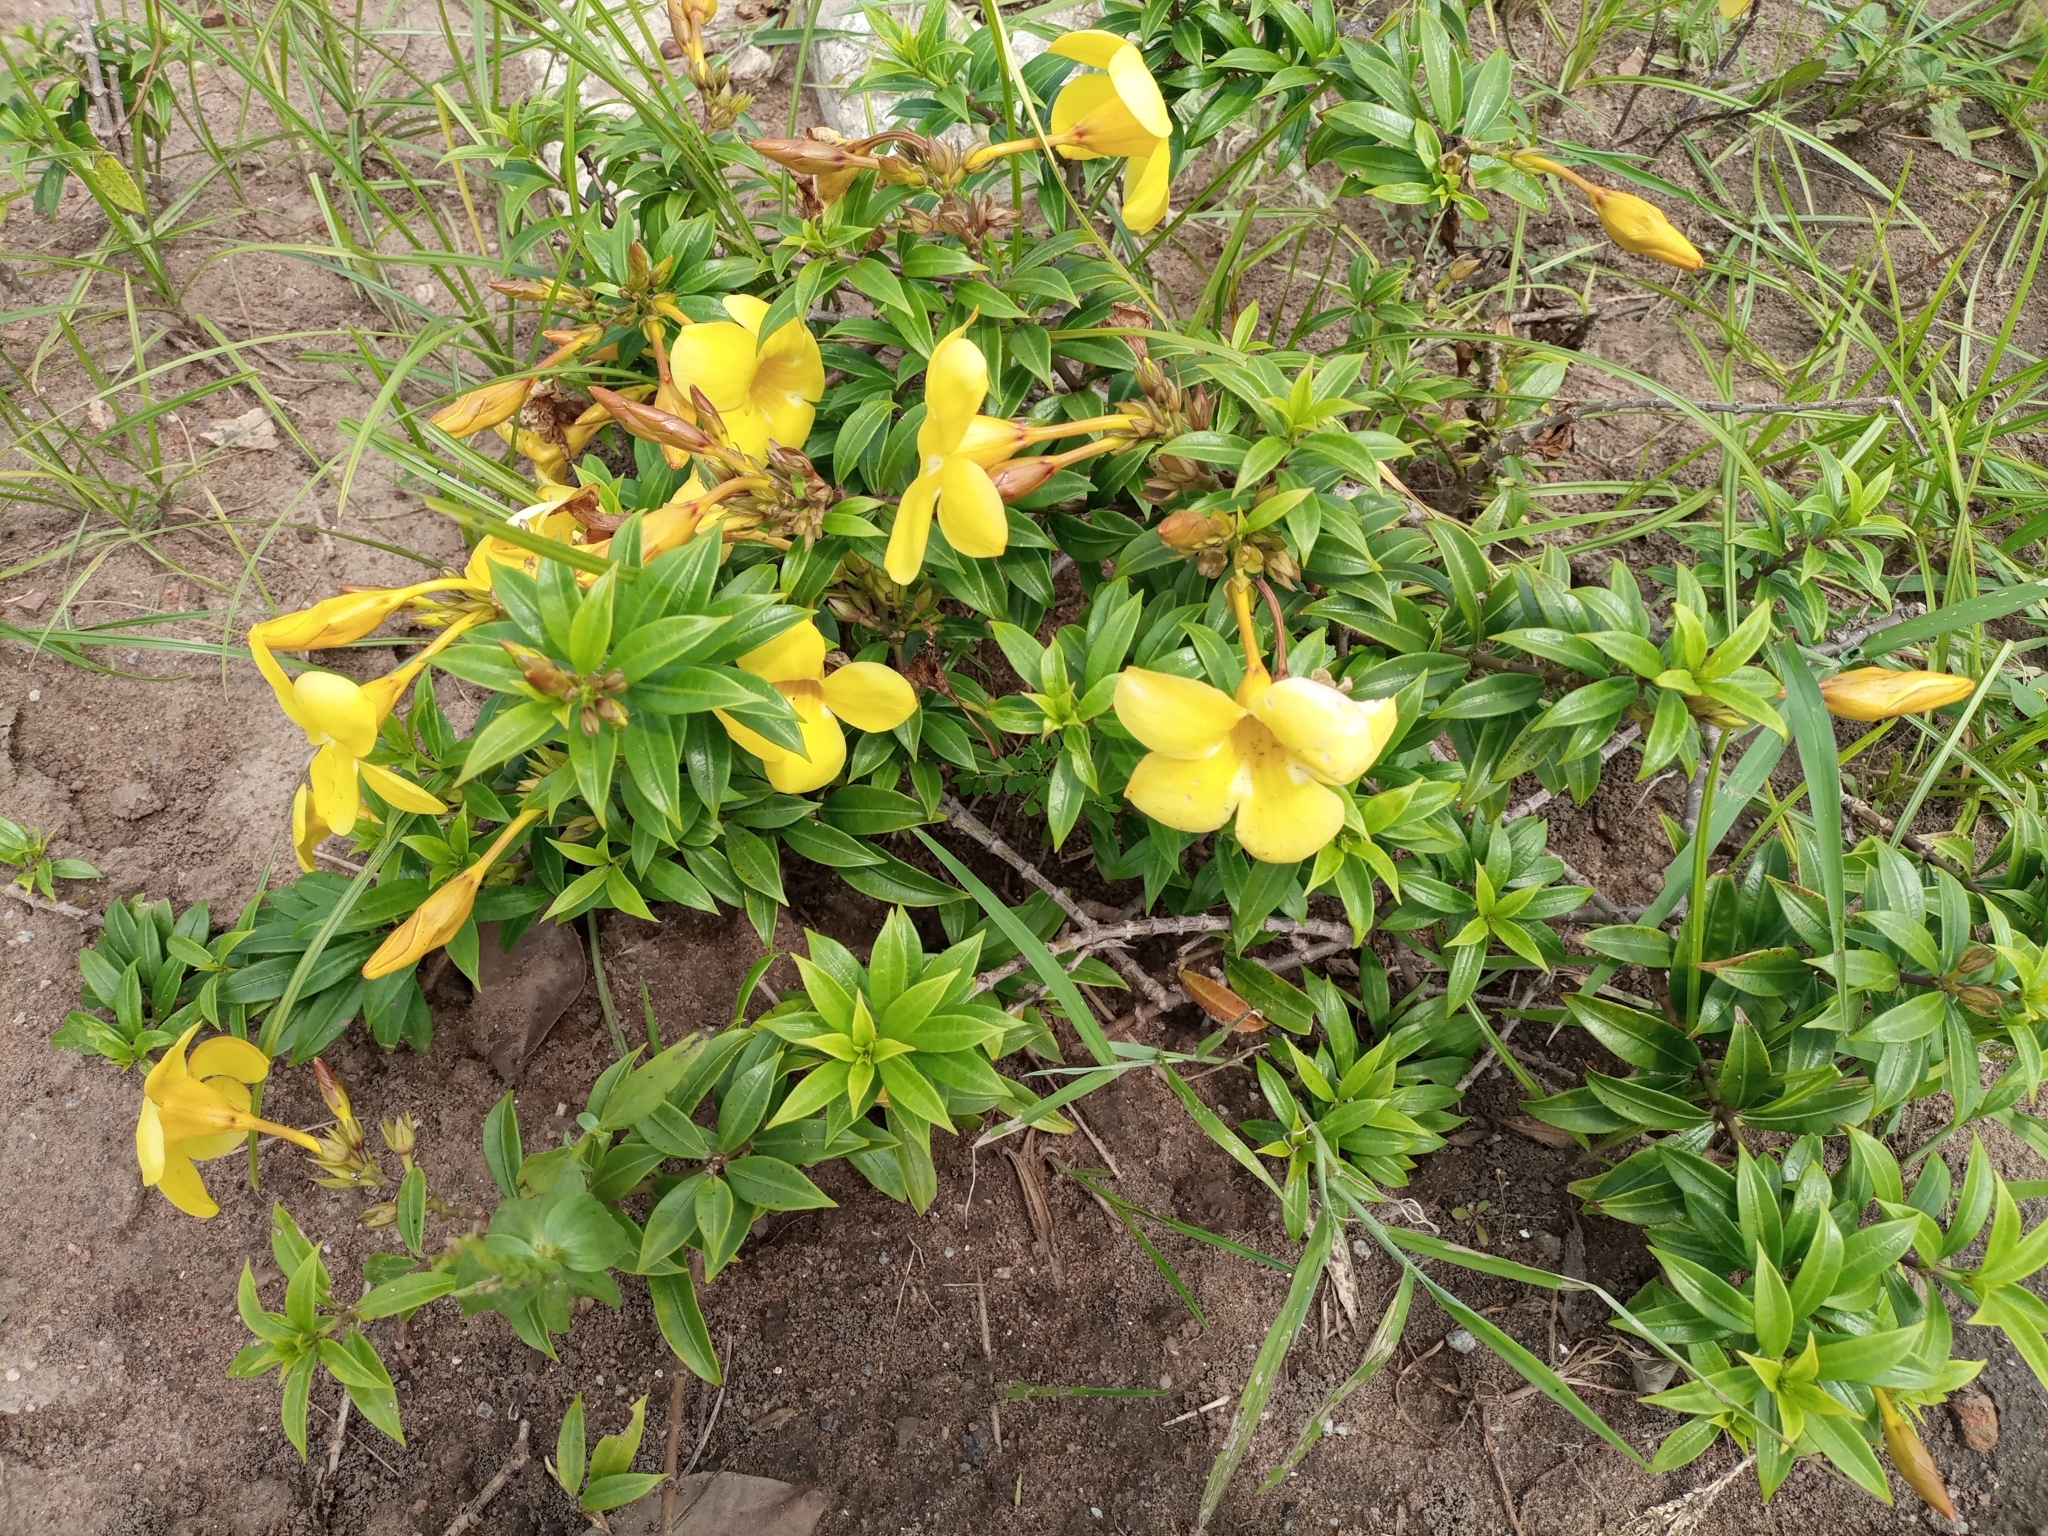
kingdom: Plantae
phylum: Tracheophyta
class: Magnoliopsida
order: Gentianales
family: Apocynaceae
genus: Allamanda
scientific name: Allamanda cathartica
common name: Golden trumpet
